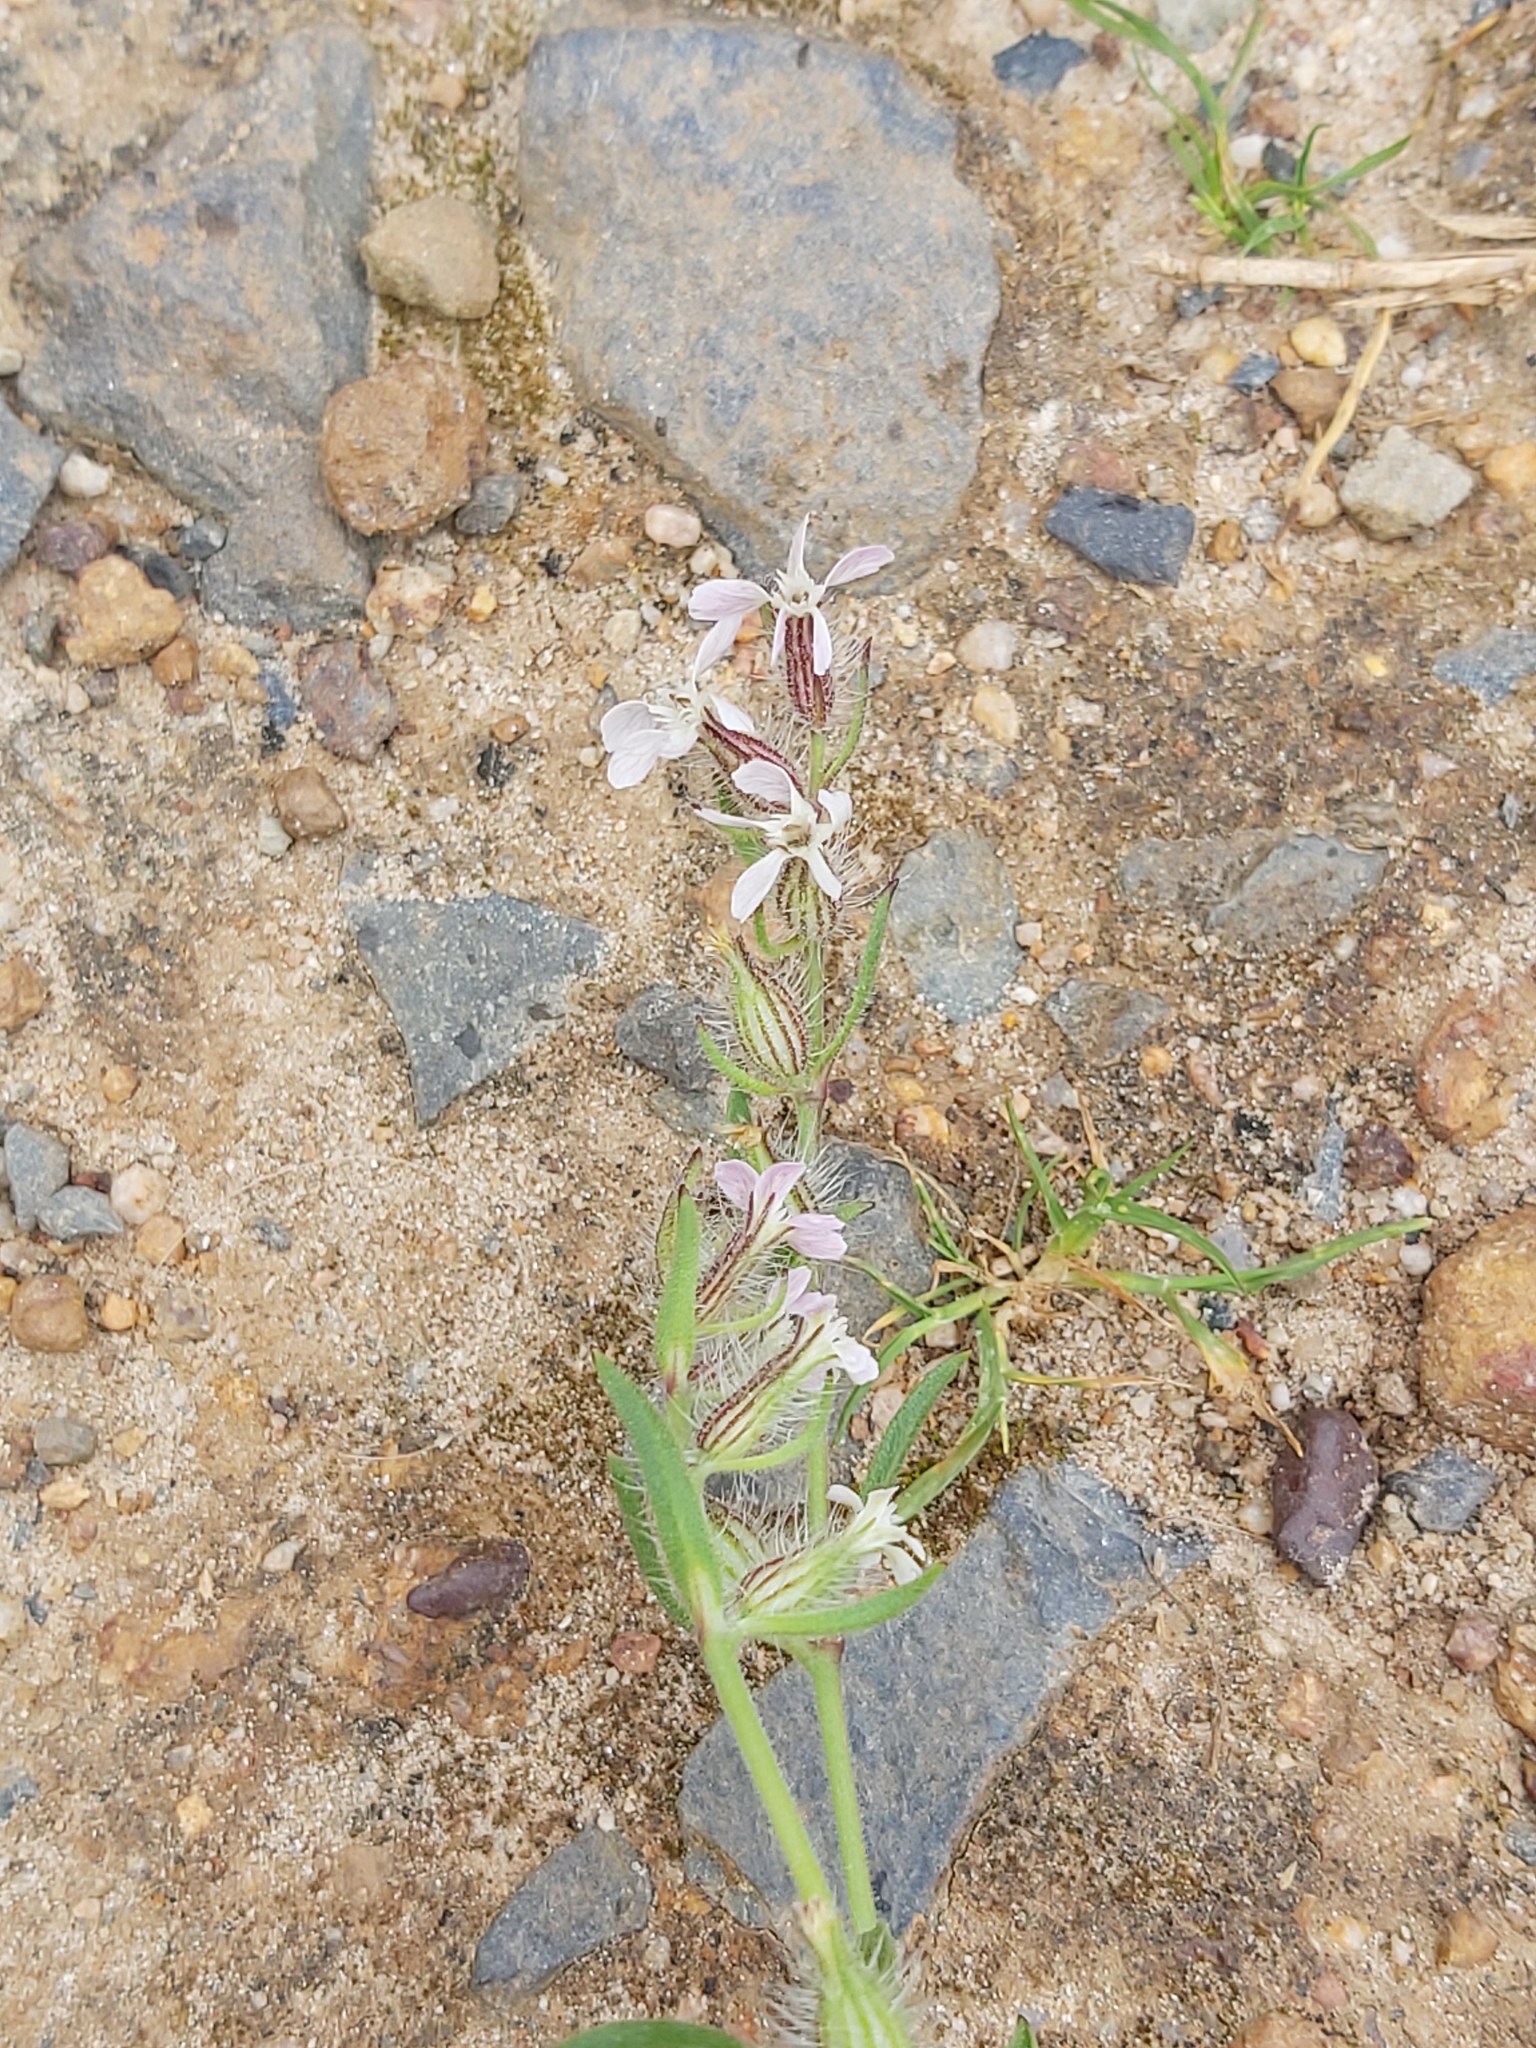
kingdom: Plantae
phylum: Tracheophyta
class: Magnoliopsida
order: Caryophyllales
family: Caryophyllaceae
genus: Silene
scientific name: Silene gallica
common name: Small-flowered catchfly
